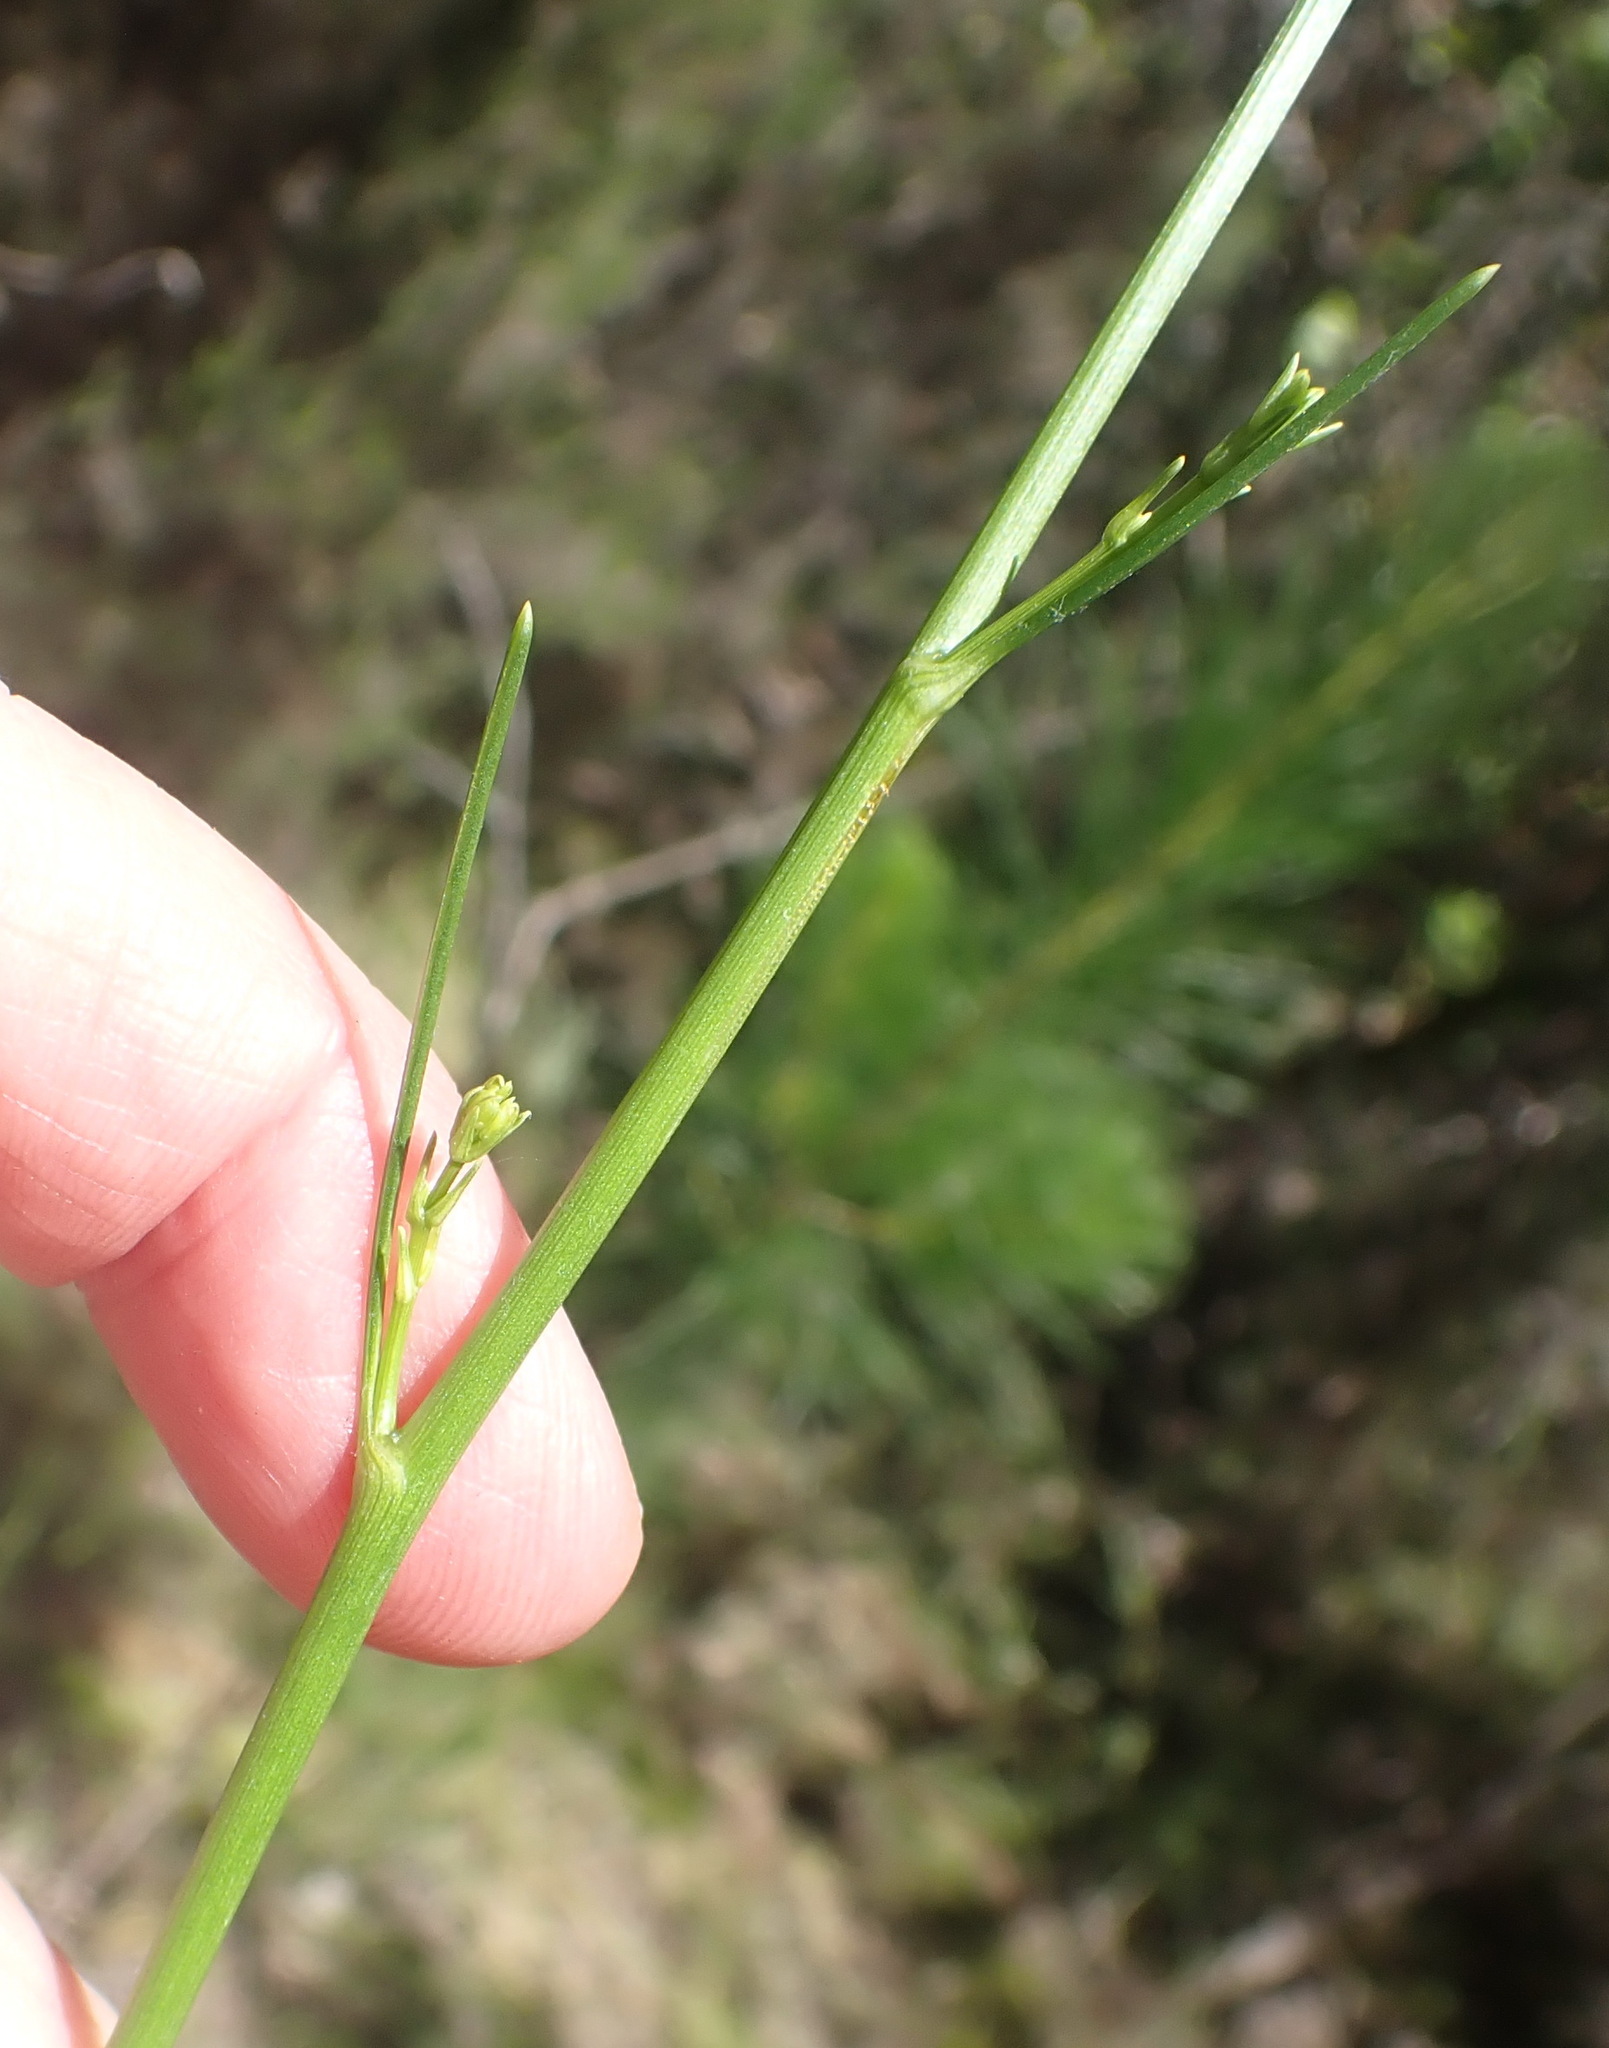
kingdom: Plantae
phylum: Tracheophyta
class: Magnoliopsida
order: Apiales
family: Apiaceae
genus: Anginon
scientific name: Anginon difforme
